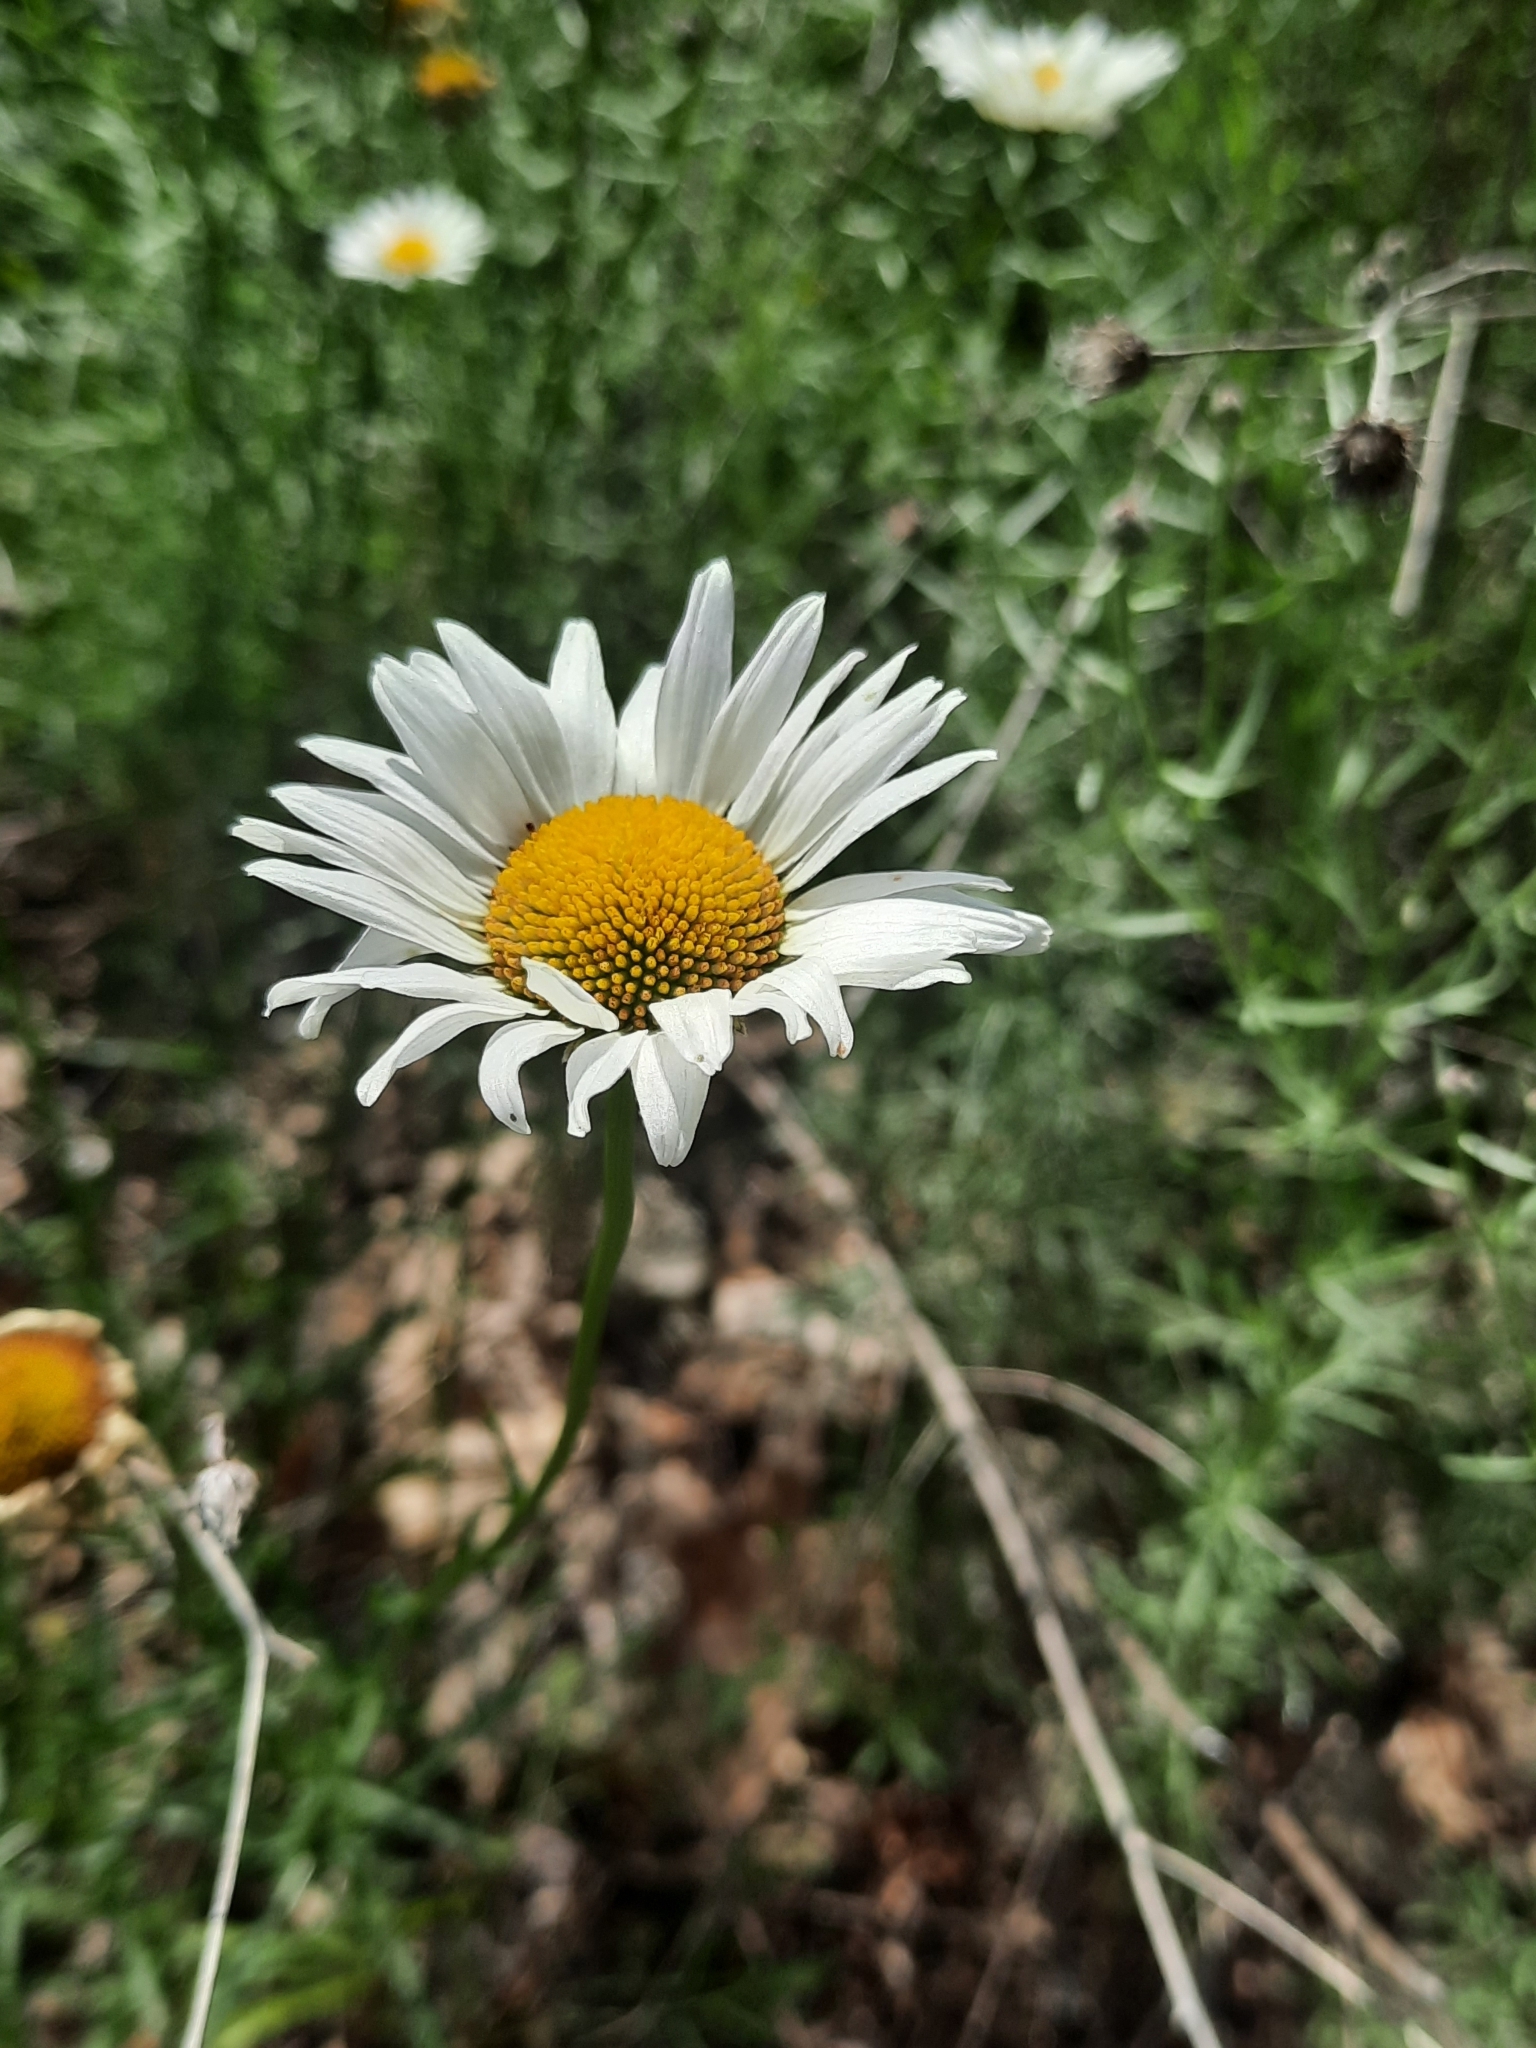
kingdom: Plantae
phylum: Tracheophyta
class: Magnoliopsida
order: Asterales
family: Asteraceae
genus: Leucanthemum
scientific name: Leucanthemum vulgare
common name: Oxeye daisy
